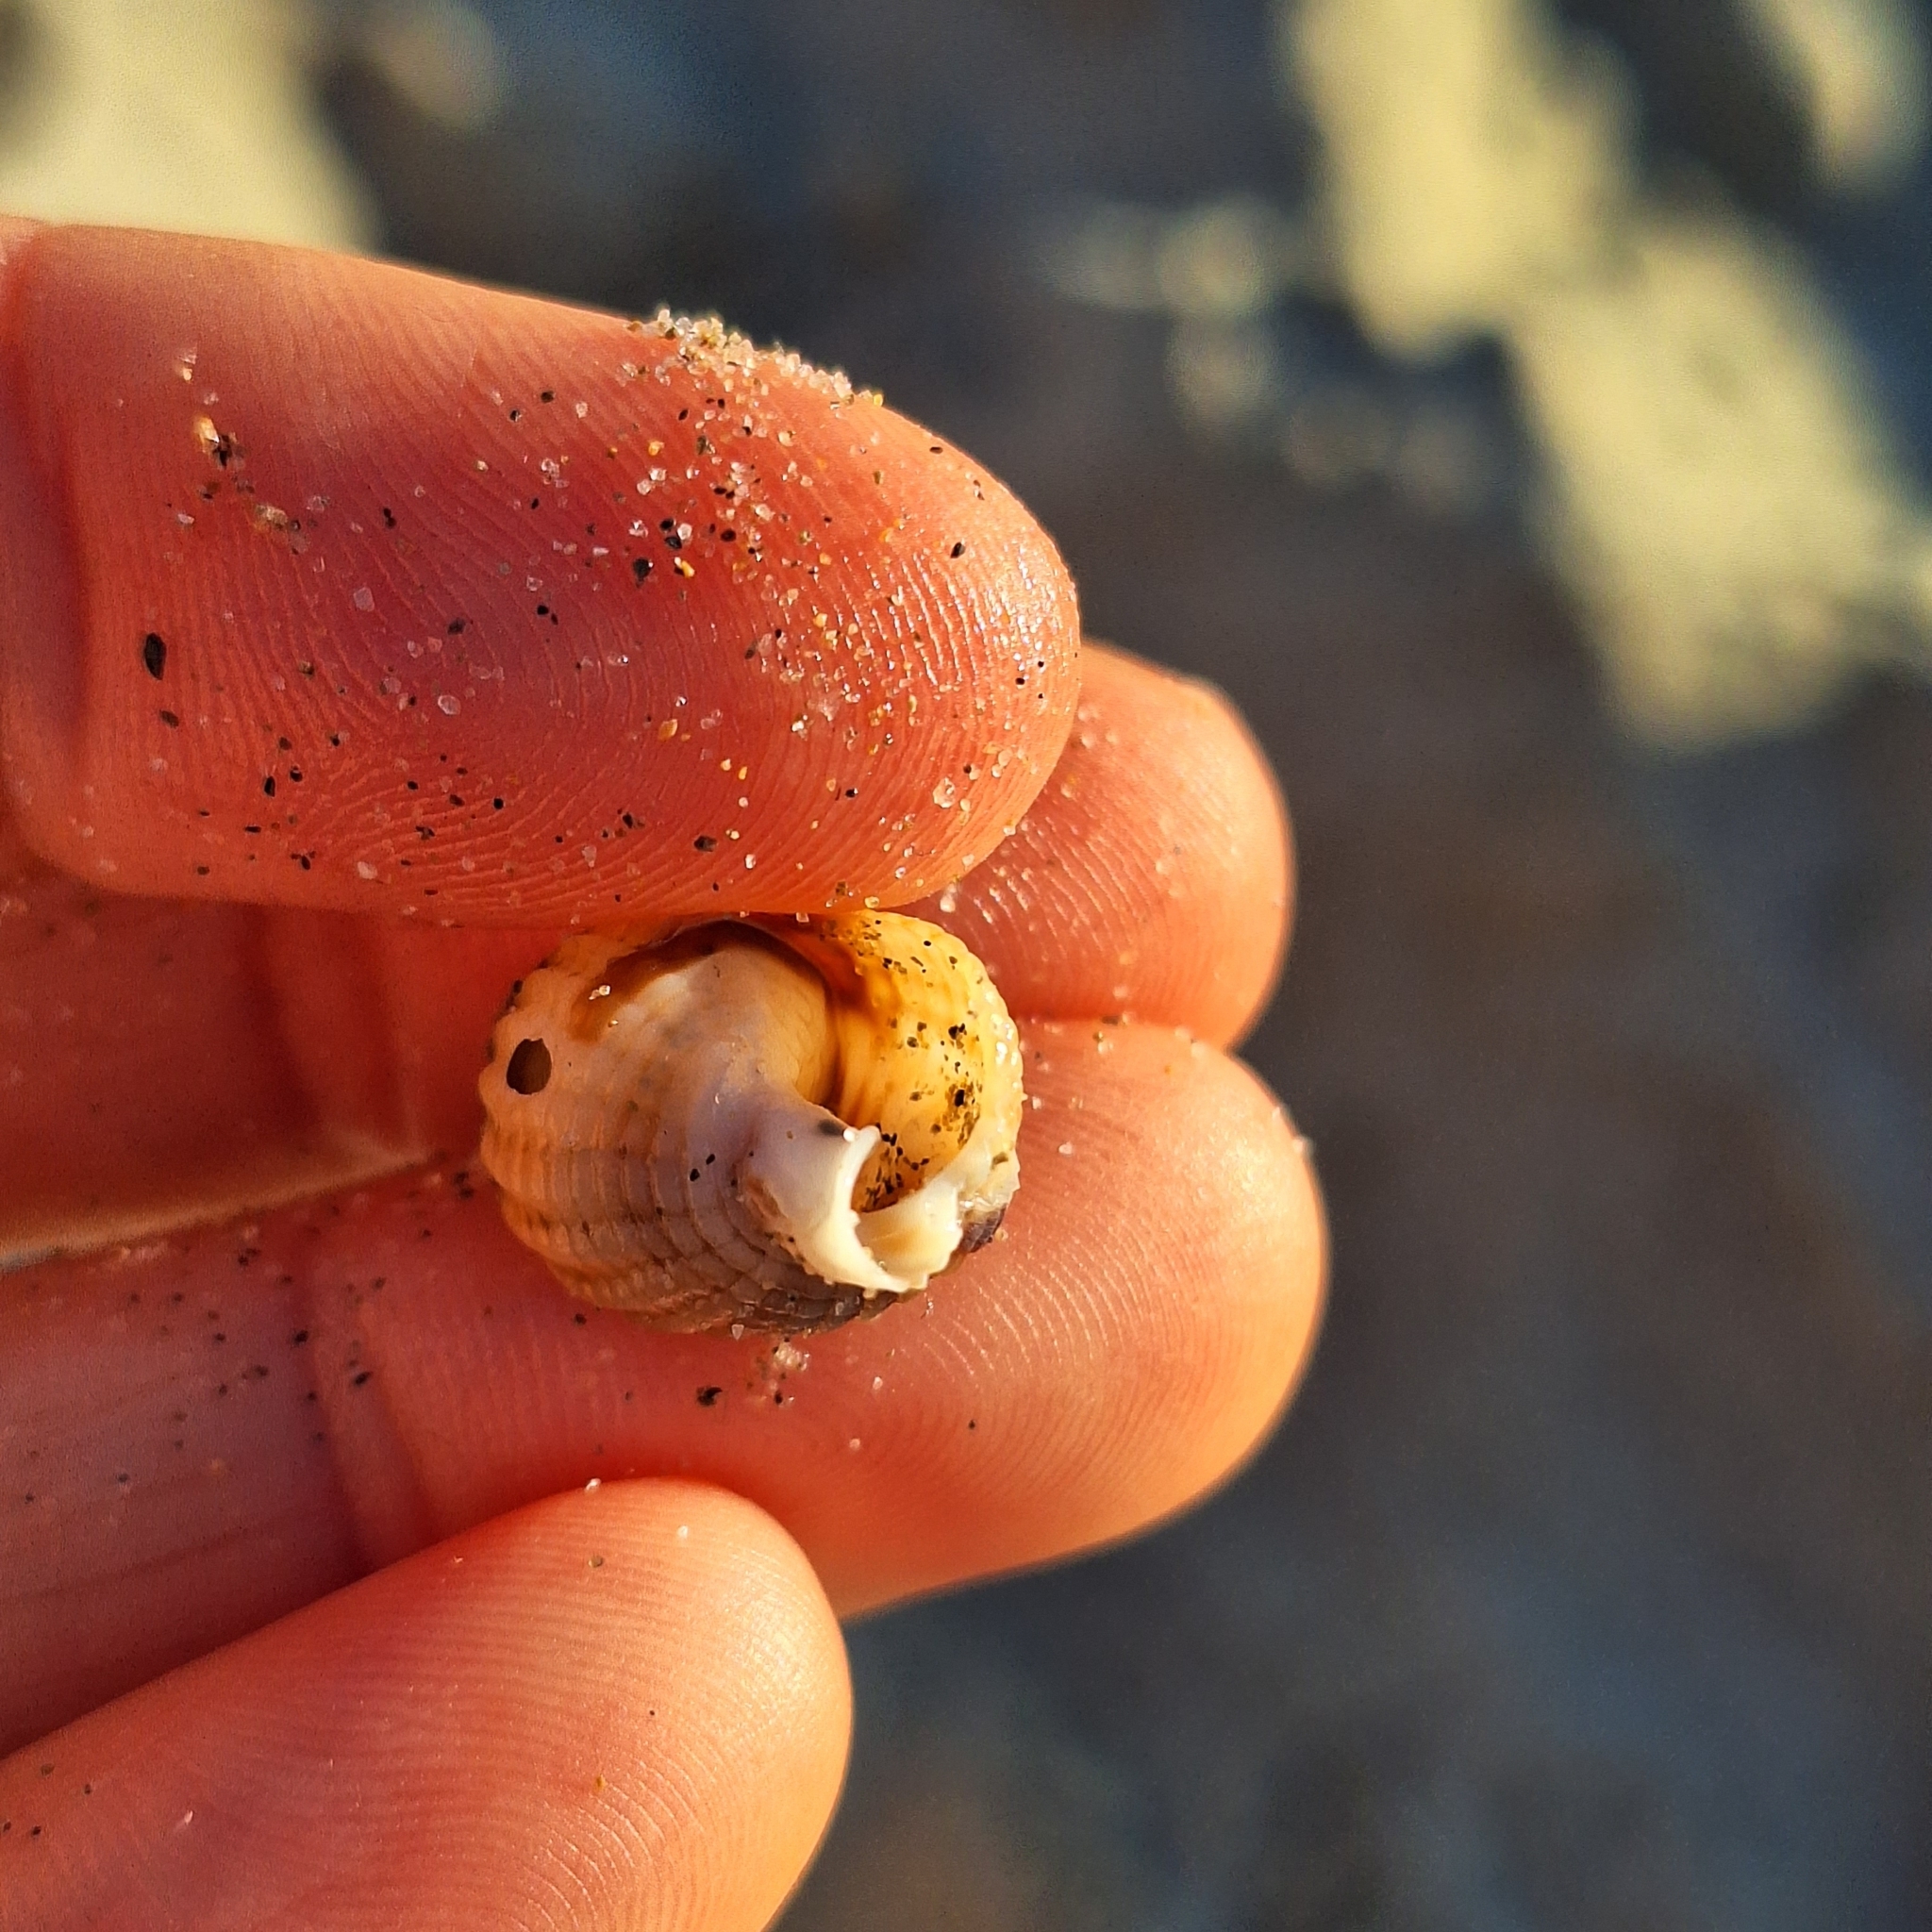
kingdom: Animalia
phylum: Mollusca
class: Gastropoda
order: Neogastropoda
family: Nassariidae
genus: Tritia
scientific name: Tritia reticulata
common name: Netted dog whelk
